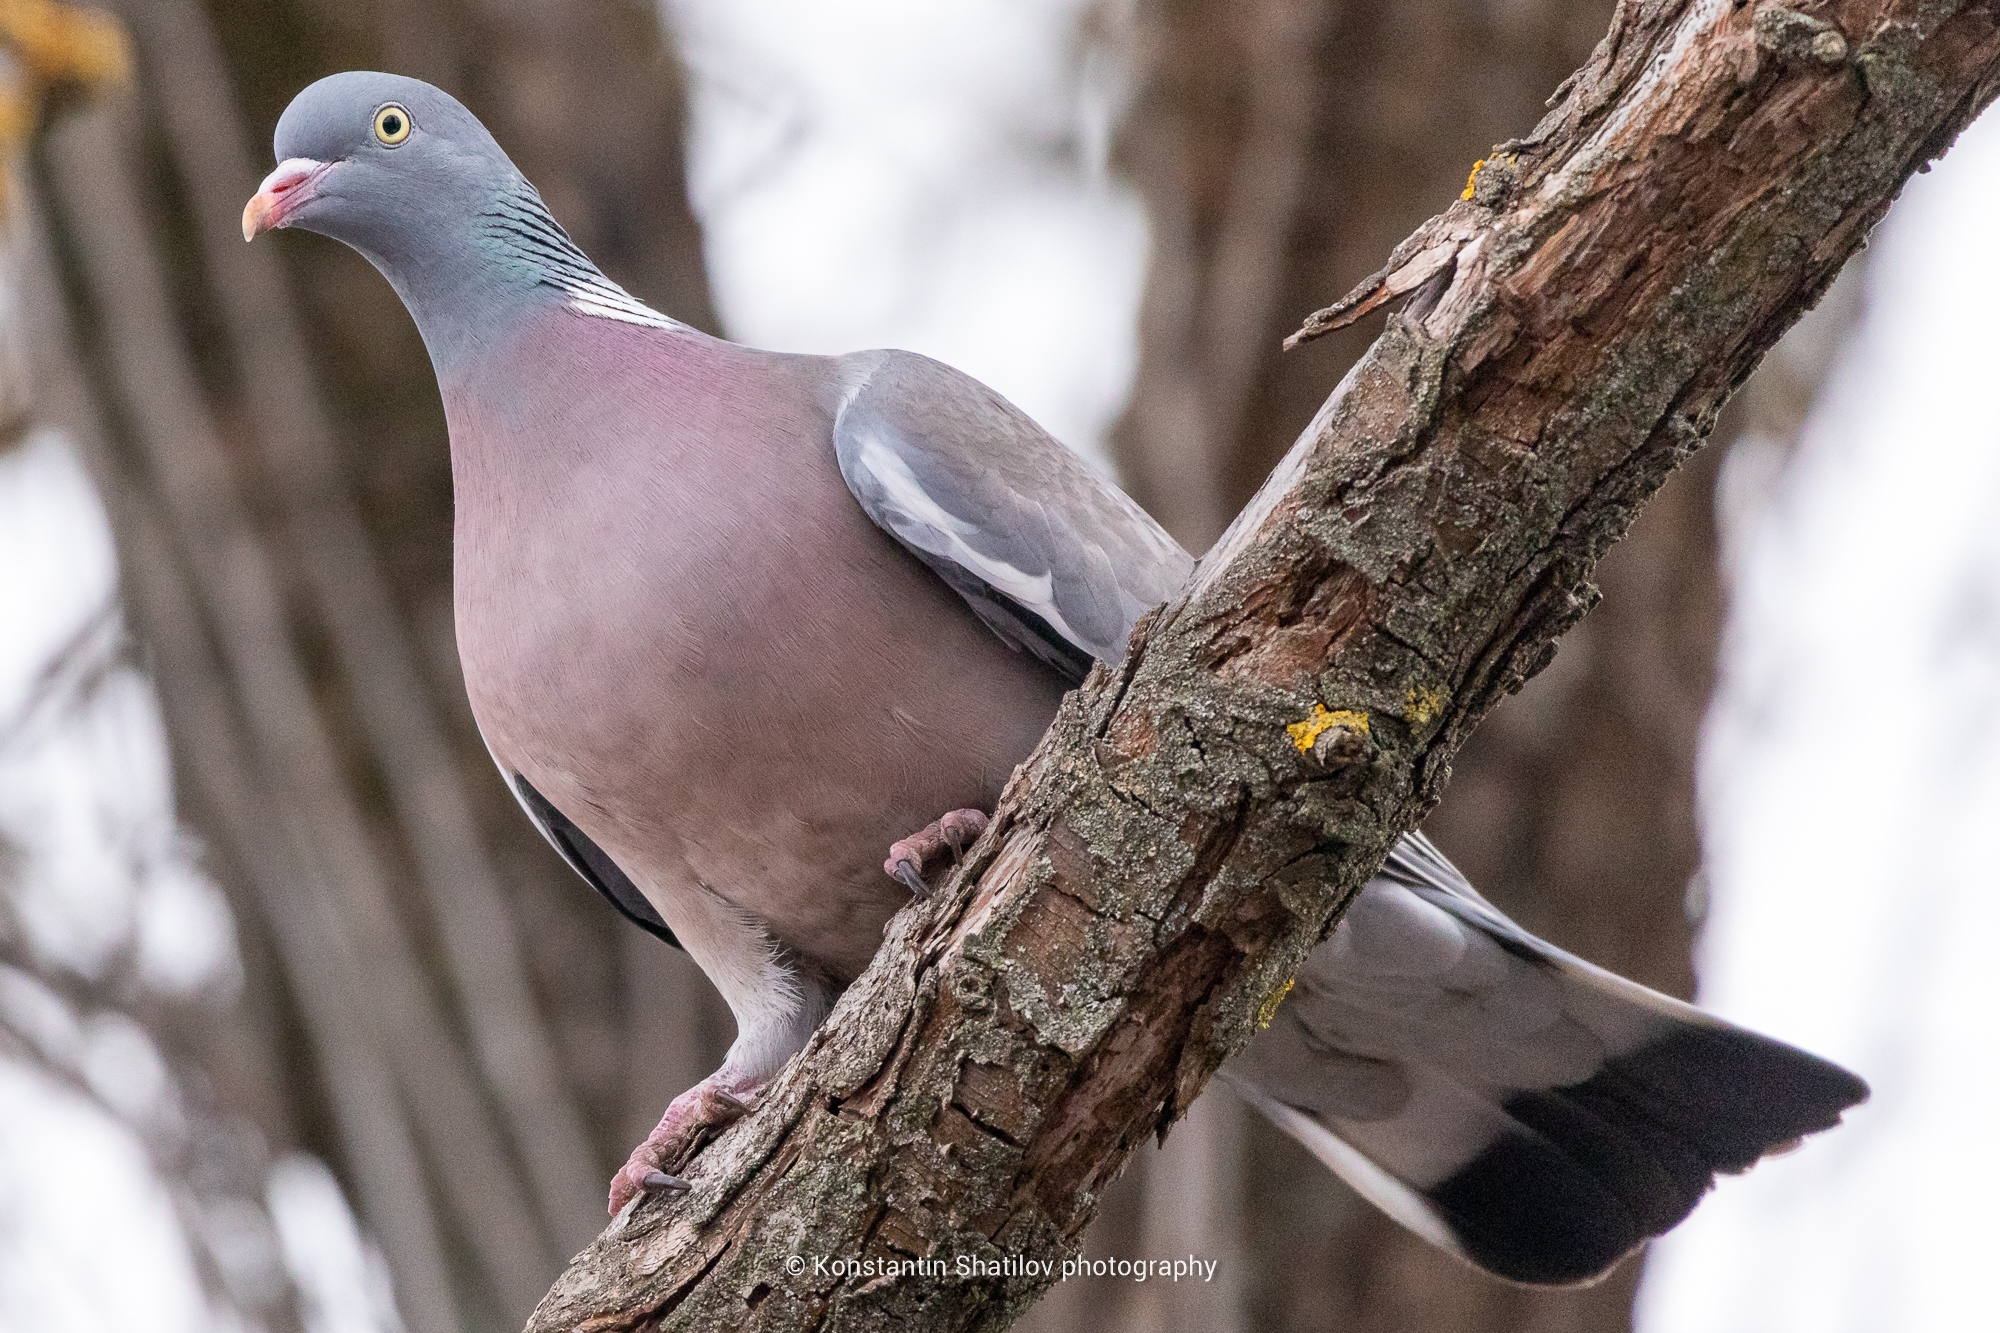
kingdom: Animalia
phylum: Chordata
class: Aves
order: Columbiformes
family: Columbidae
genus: Columba
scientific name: Columba palumbus
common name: Common wood pigeon
